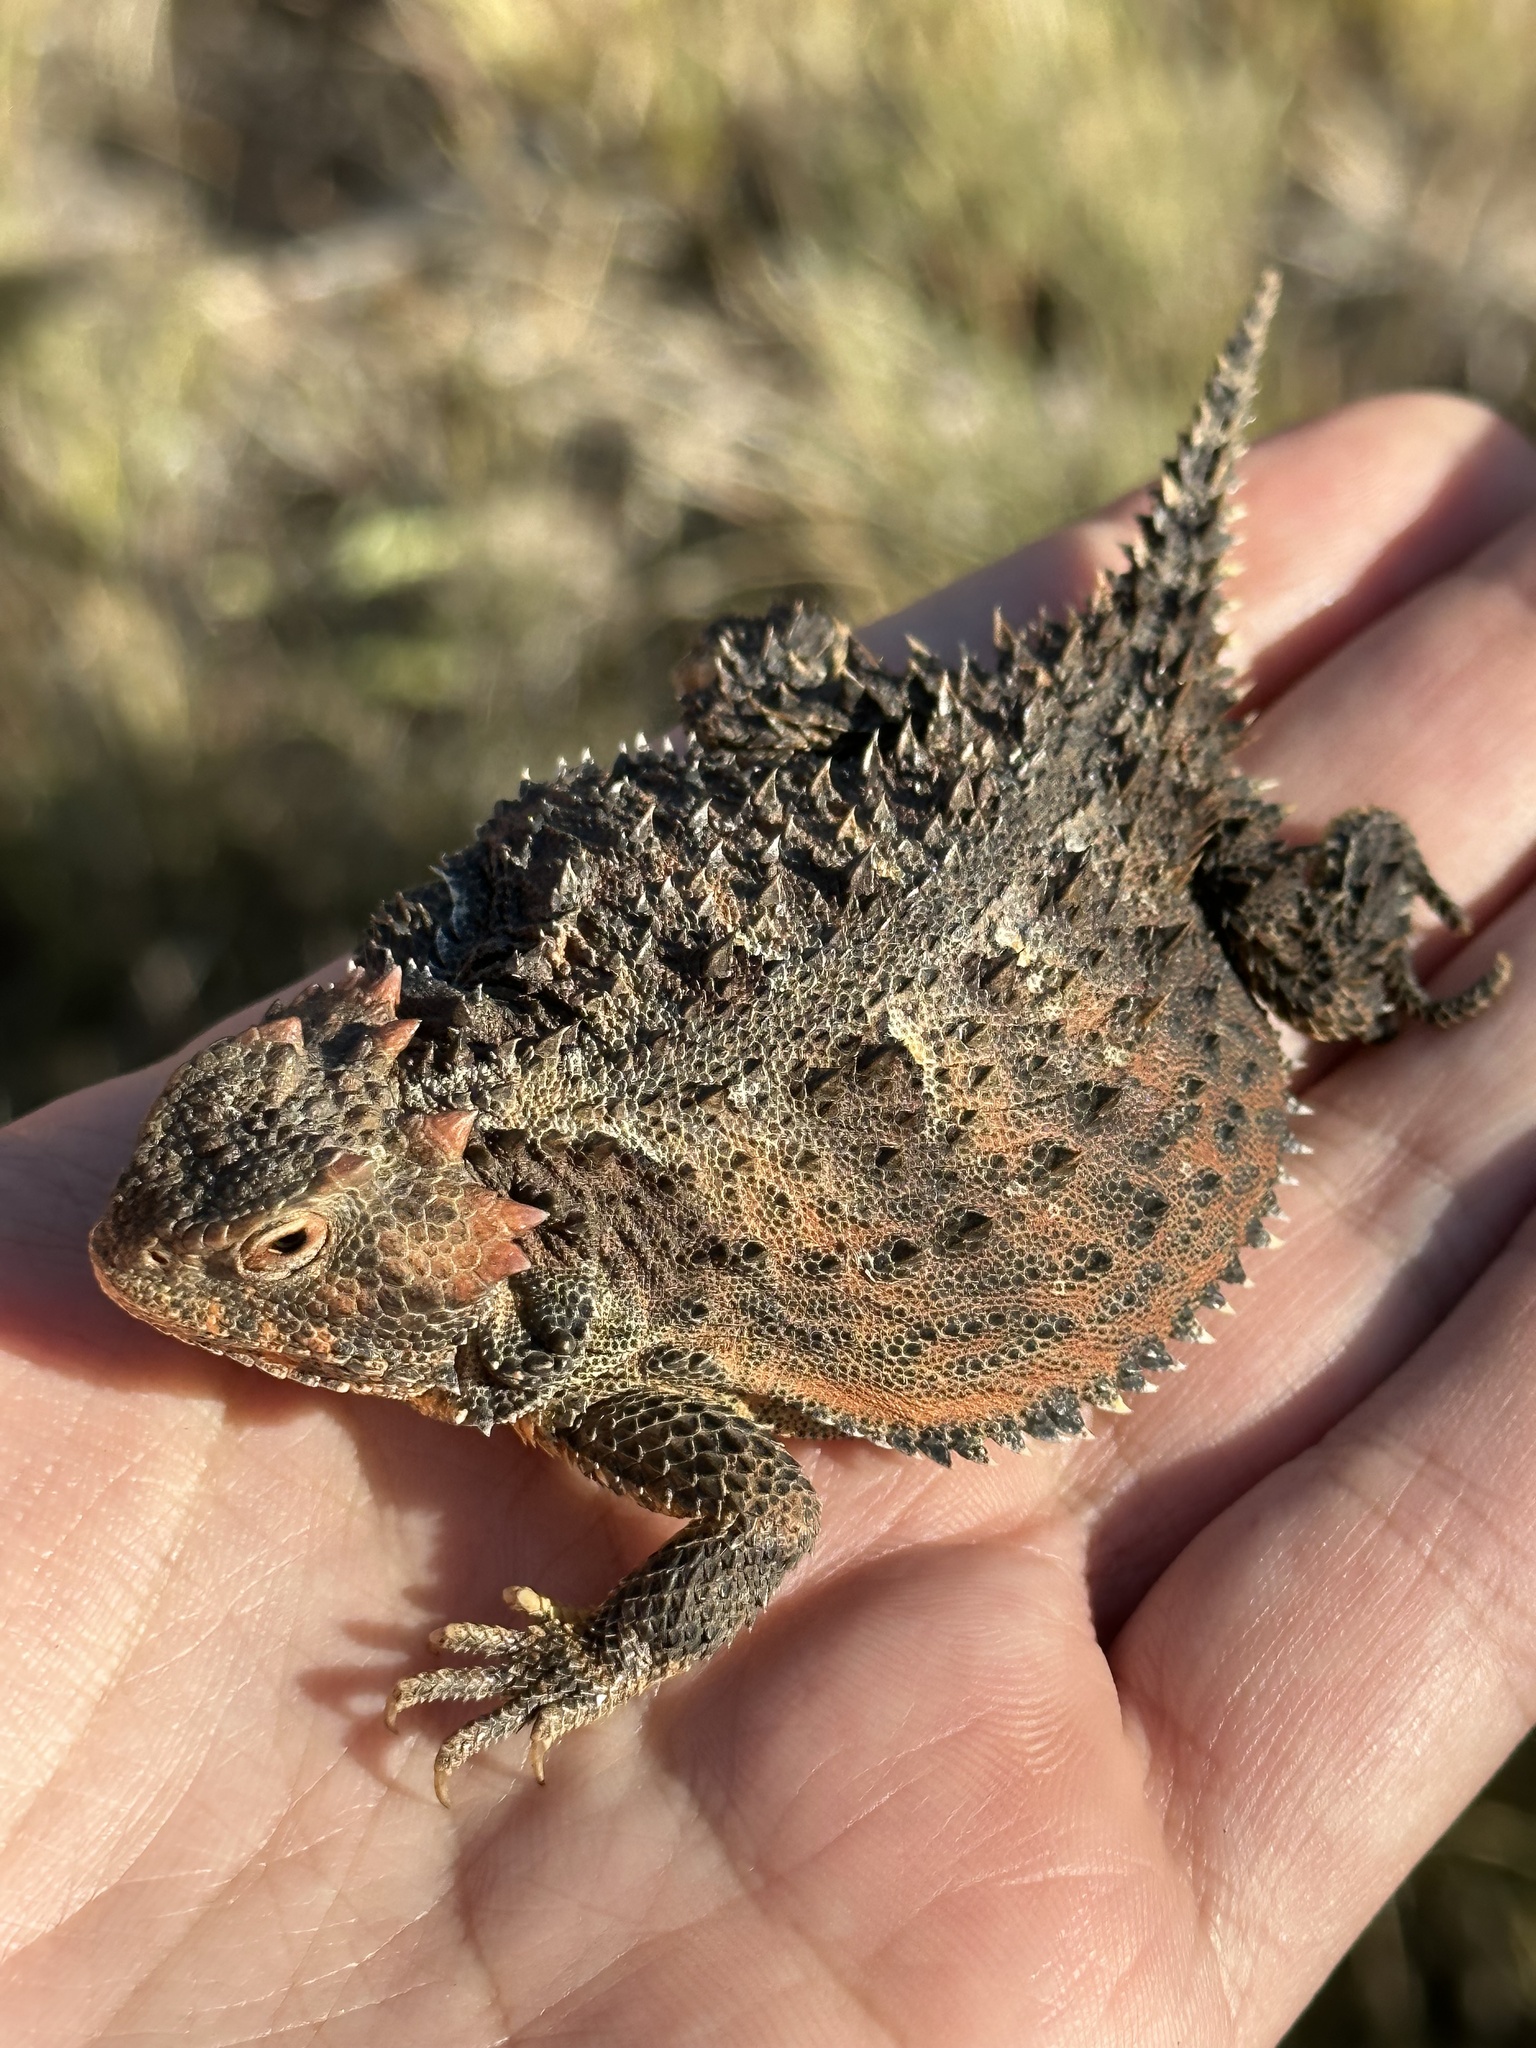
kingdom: Animalia
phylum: Chordata
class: Squamata
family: Phrynosomatidae
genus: Phrynosoma
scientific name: Phrynosoma hernandesi
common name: Greater short-horned lizard
